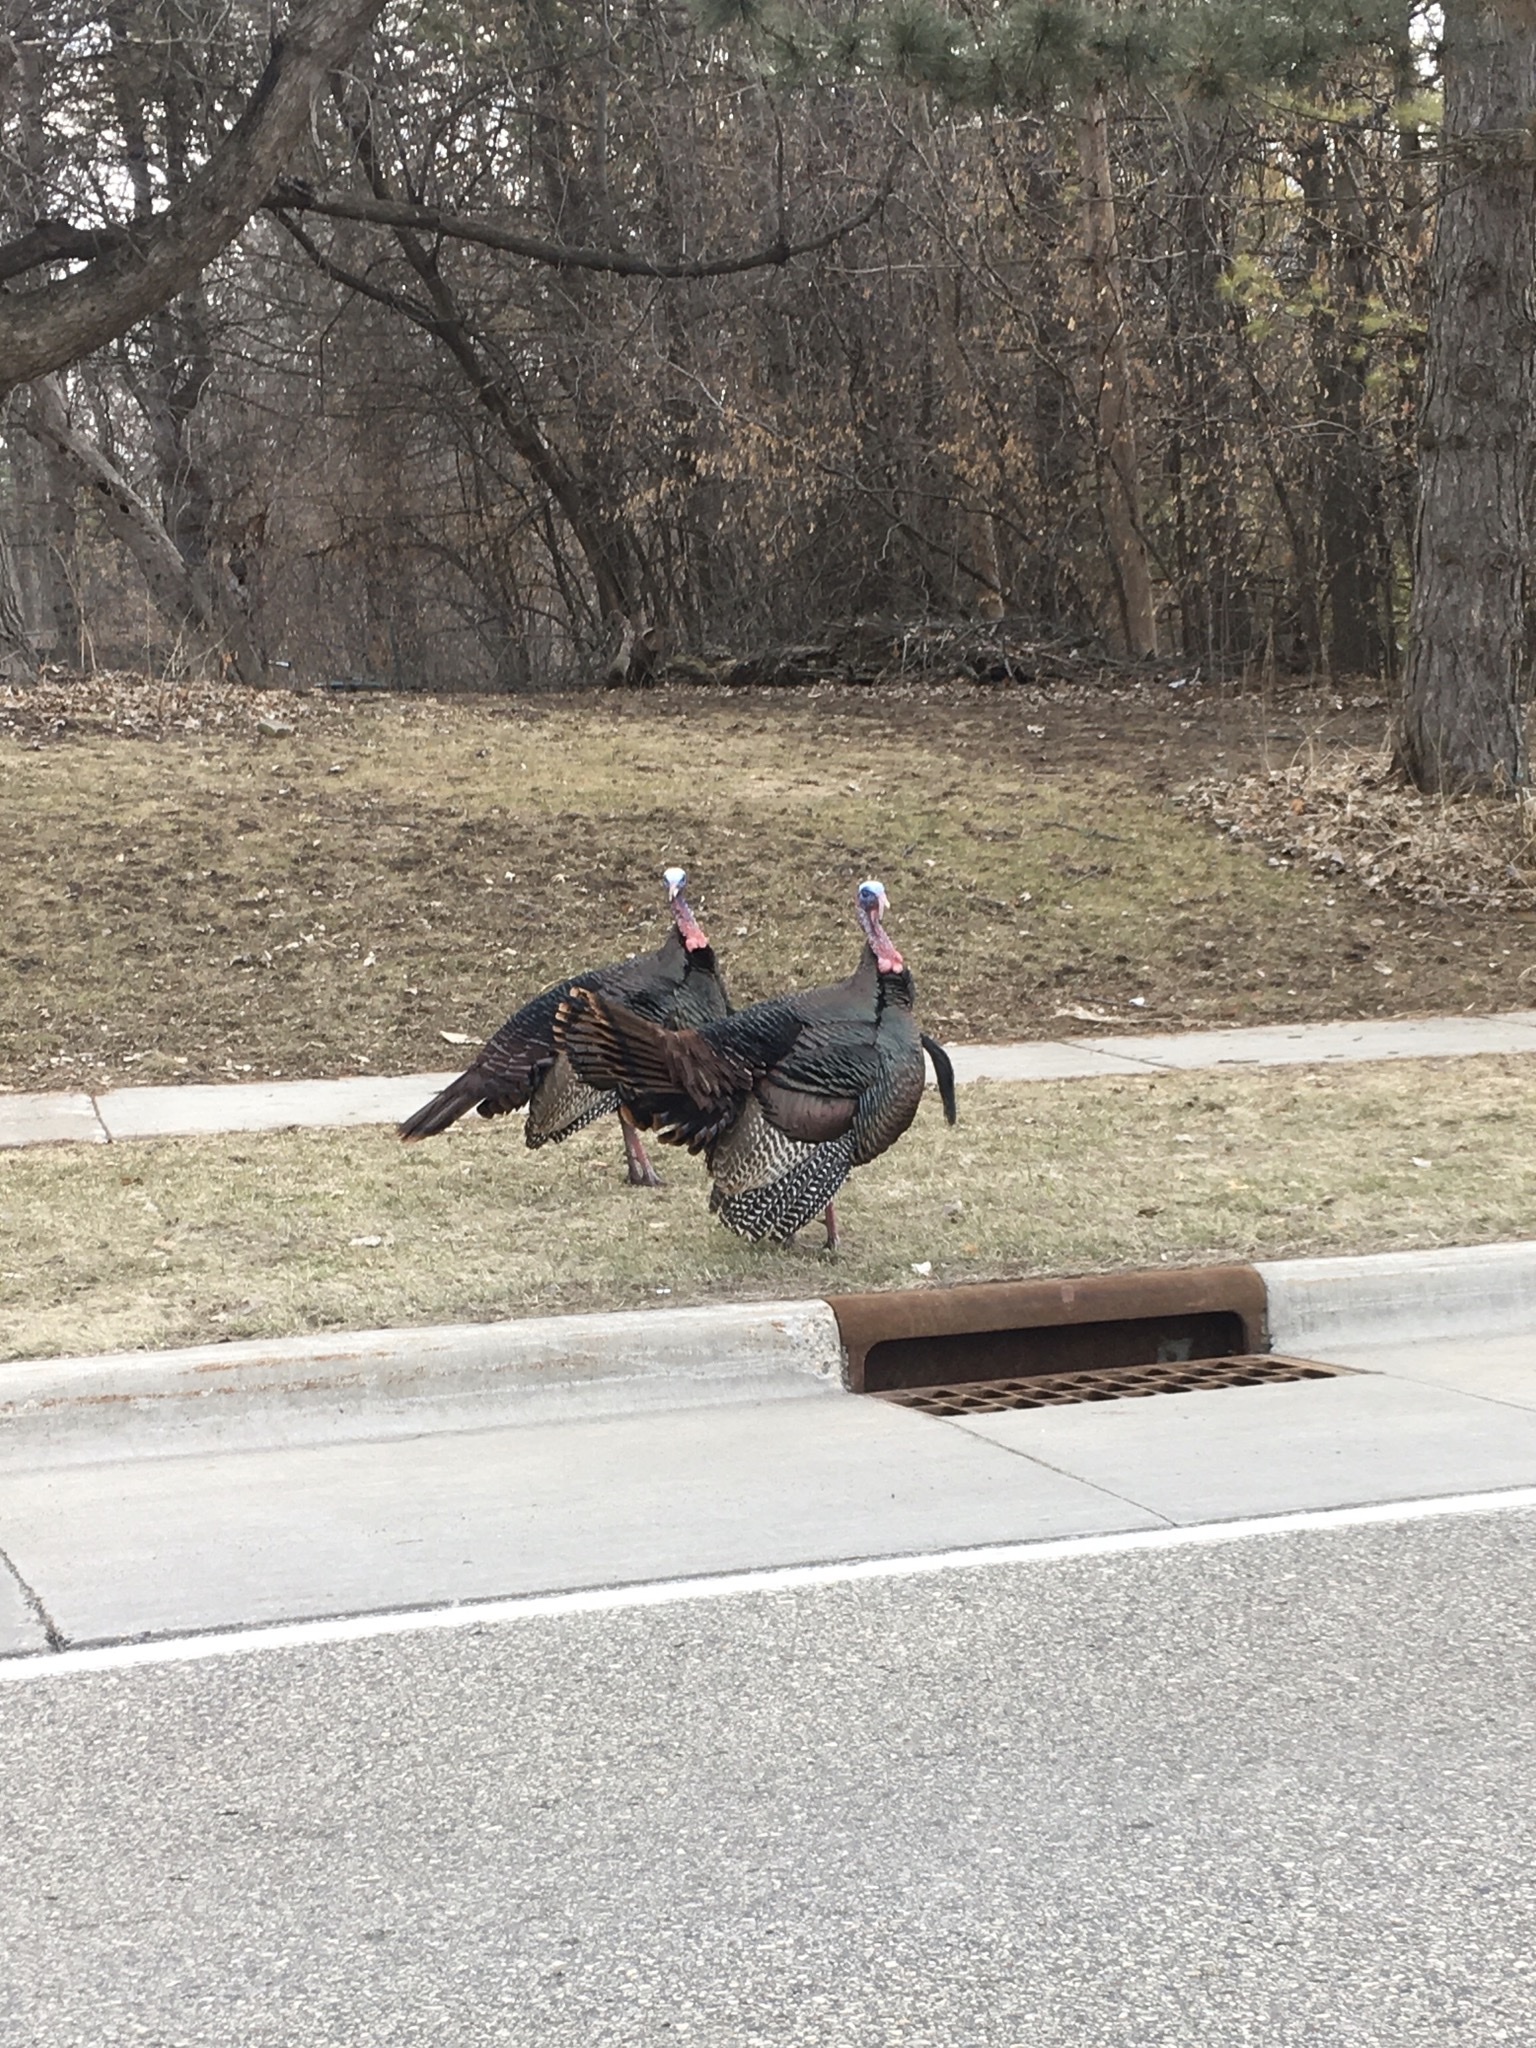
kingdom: Animalia
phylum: Chordata
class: Aves
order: Galliformes
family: Phasianidae
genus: Meleagris
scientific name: Meleagris gallopavo
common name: Wild turkey
